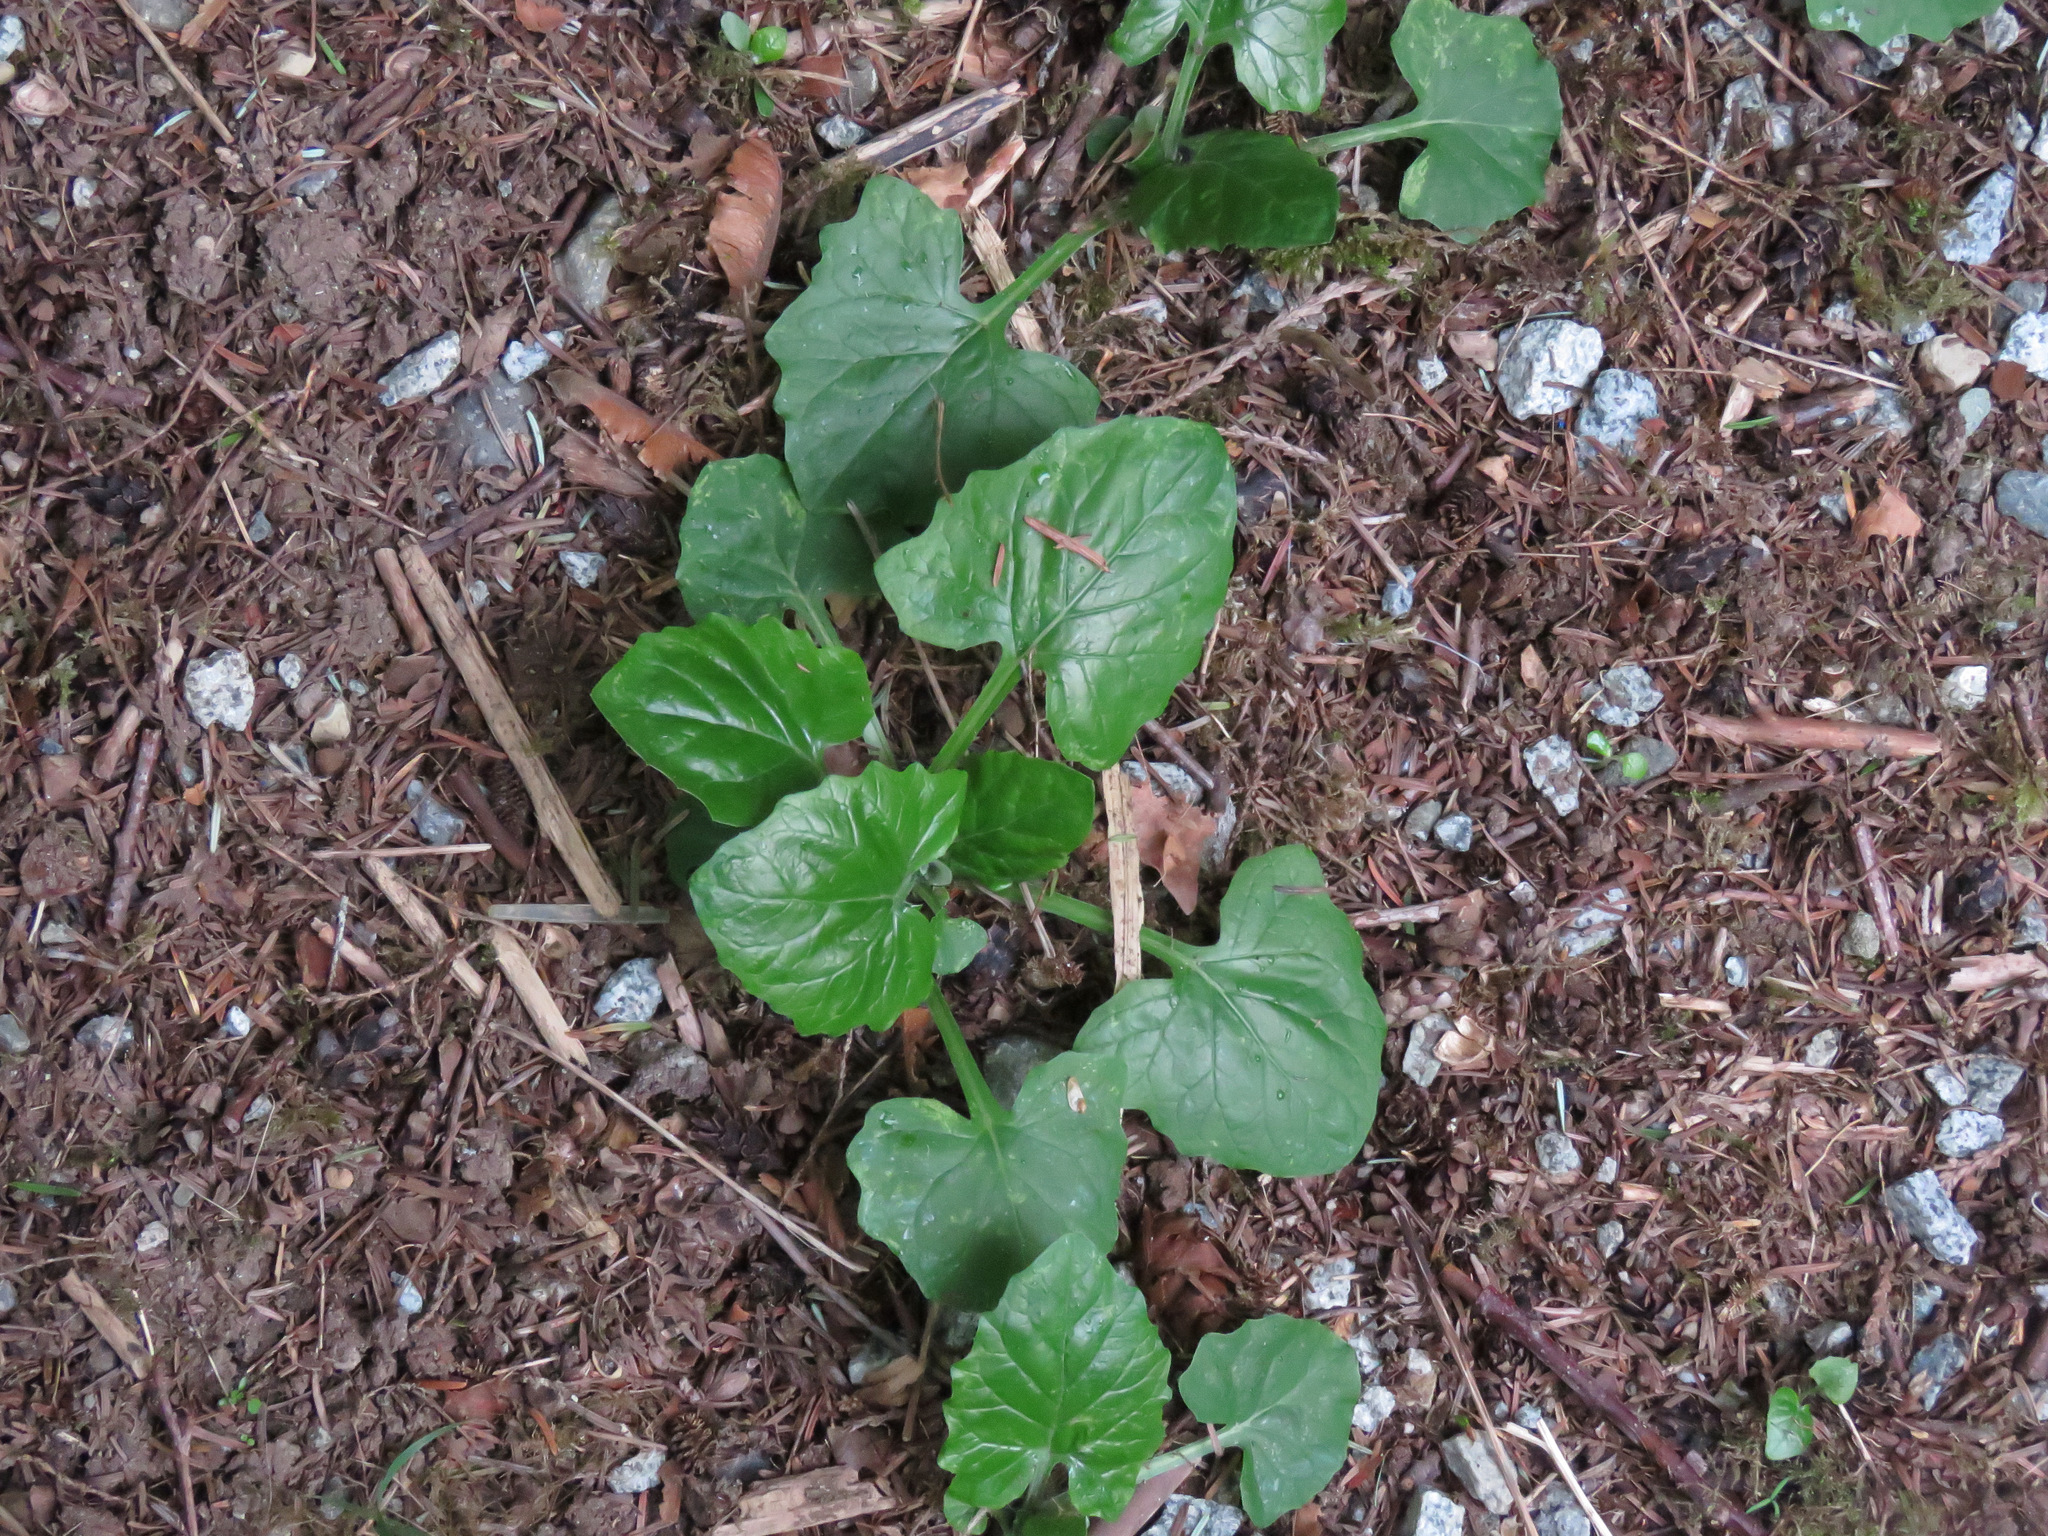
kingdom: Plantae
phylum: Tracheophyta
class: Magnoliopsida
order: Asterales
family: Asteraceae
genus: Adenocaulon
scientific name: Adenocaulon bicolor
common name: Trailplant
